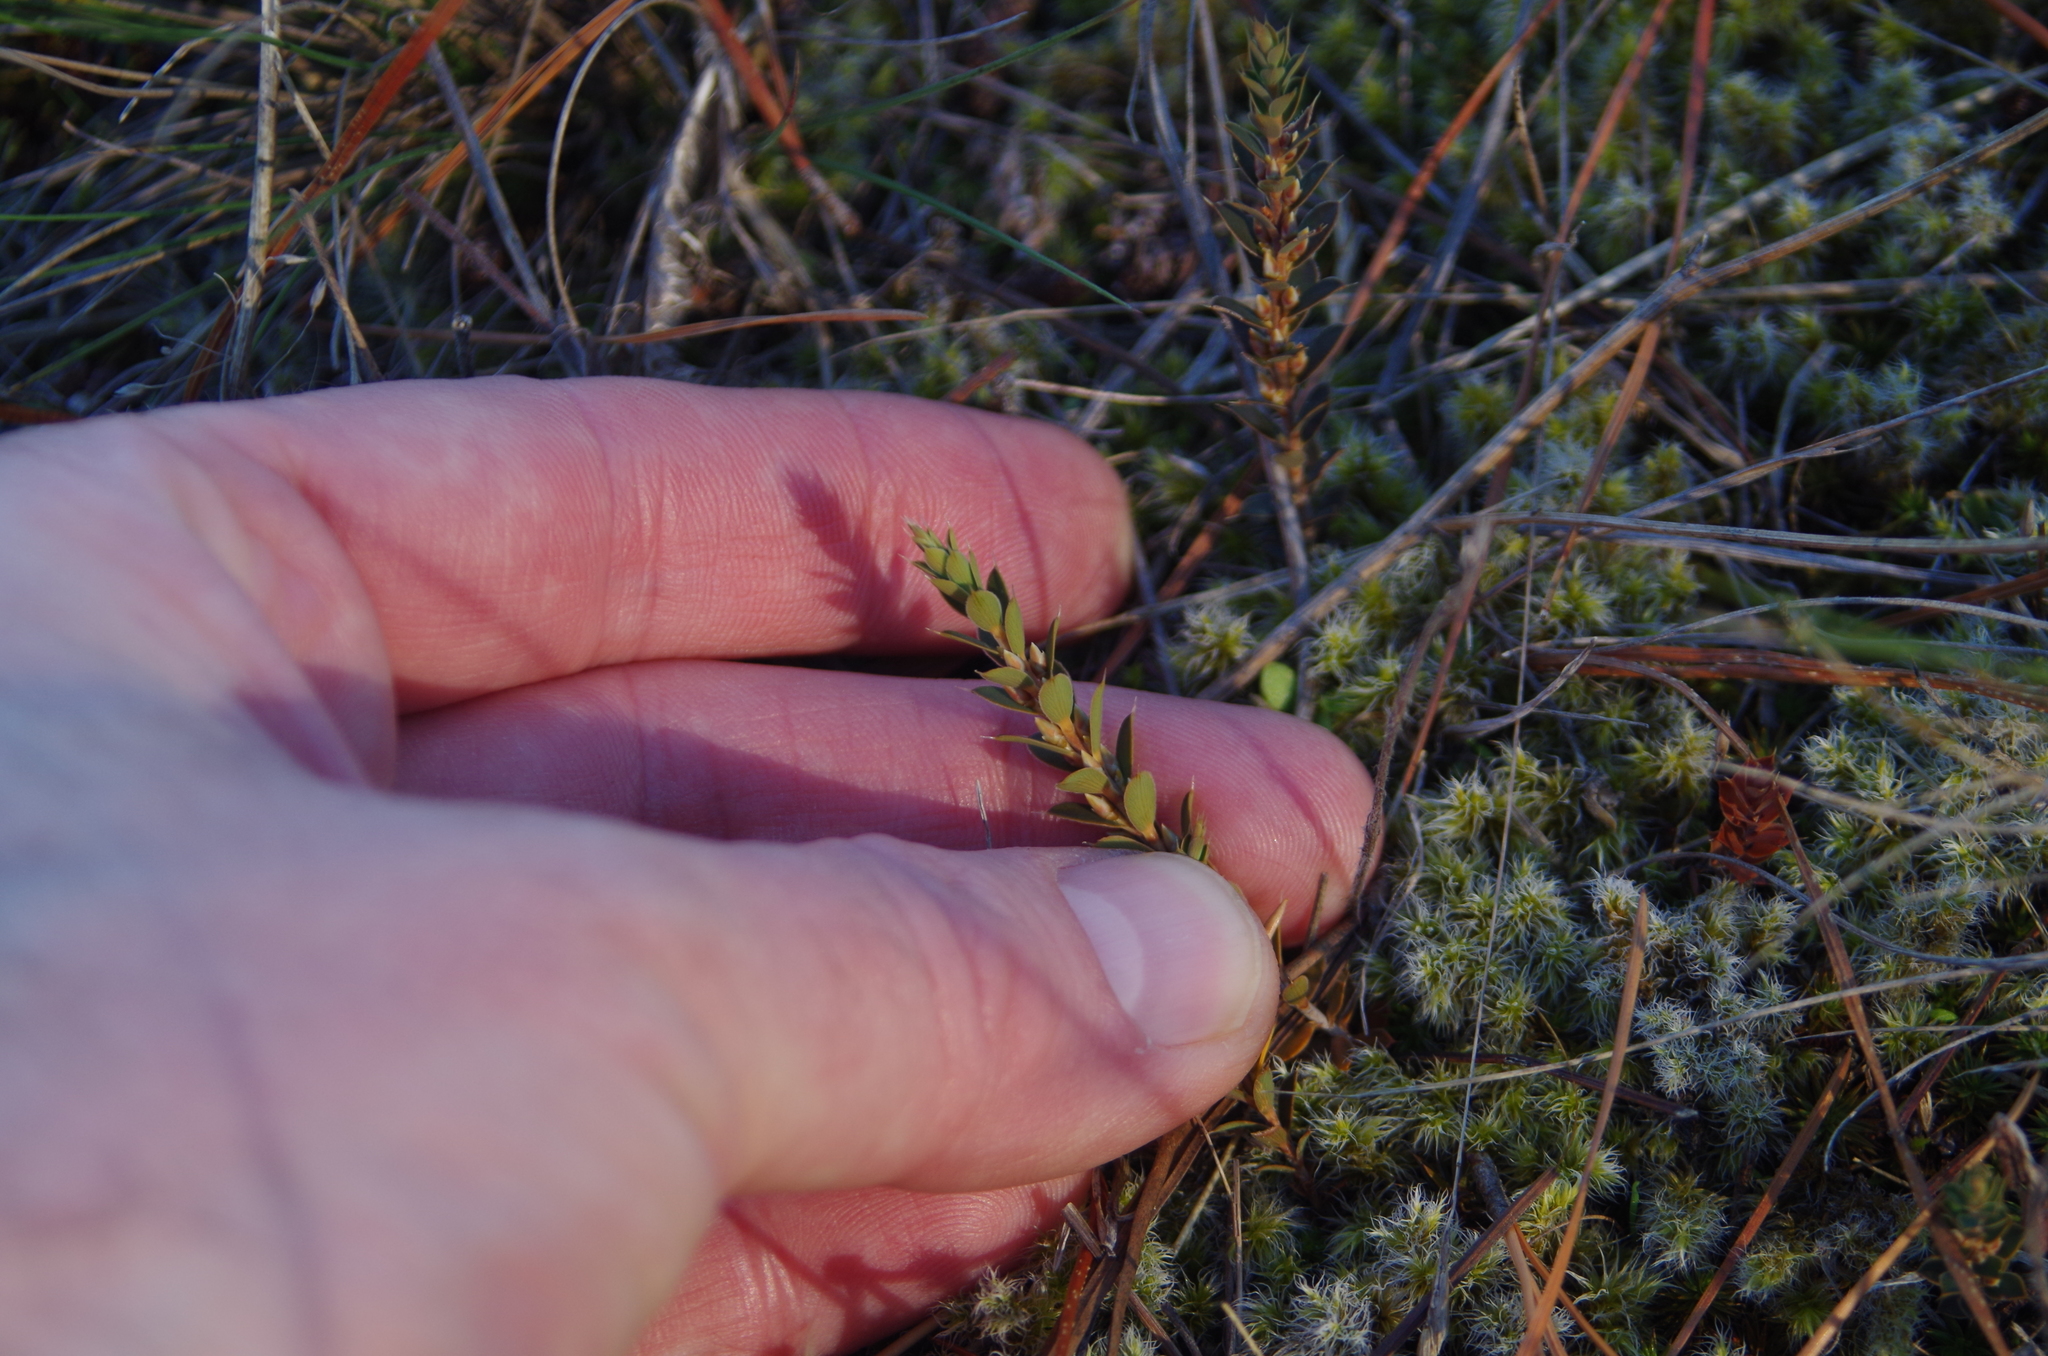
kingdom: Plantae
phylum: Tracheophyta
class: Magnoliopsida
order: Ericales
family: Ericaceae
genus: Styphelia
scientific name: Styphelia nesophila
